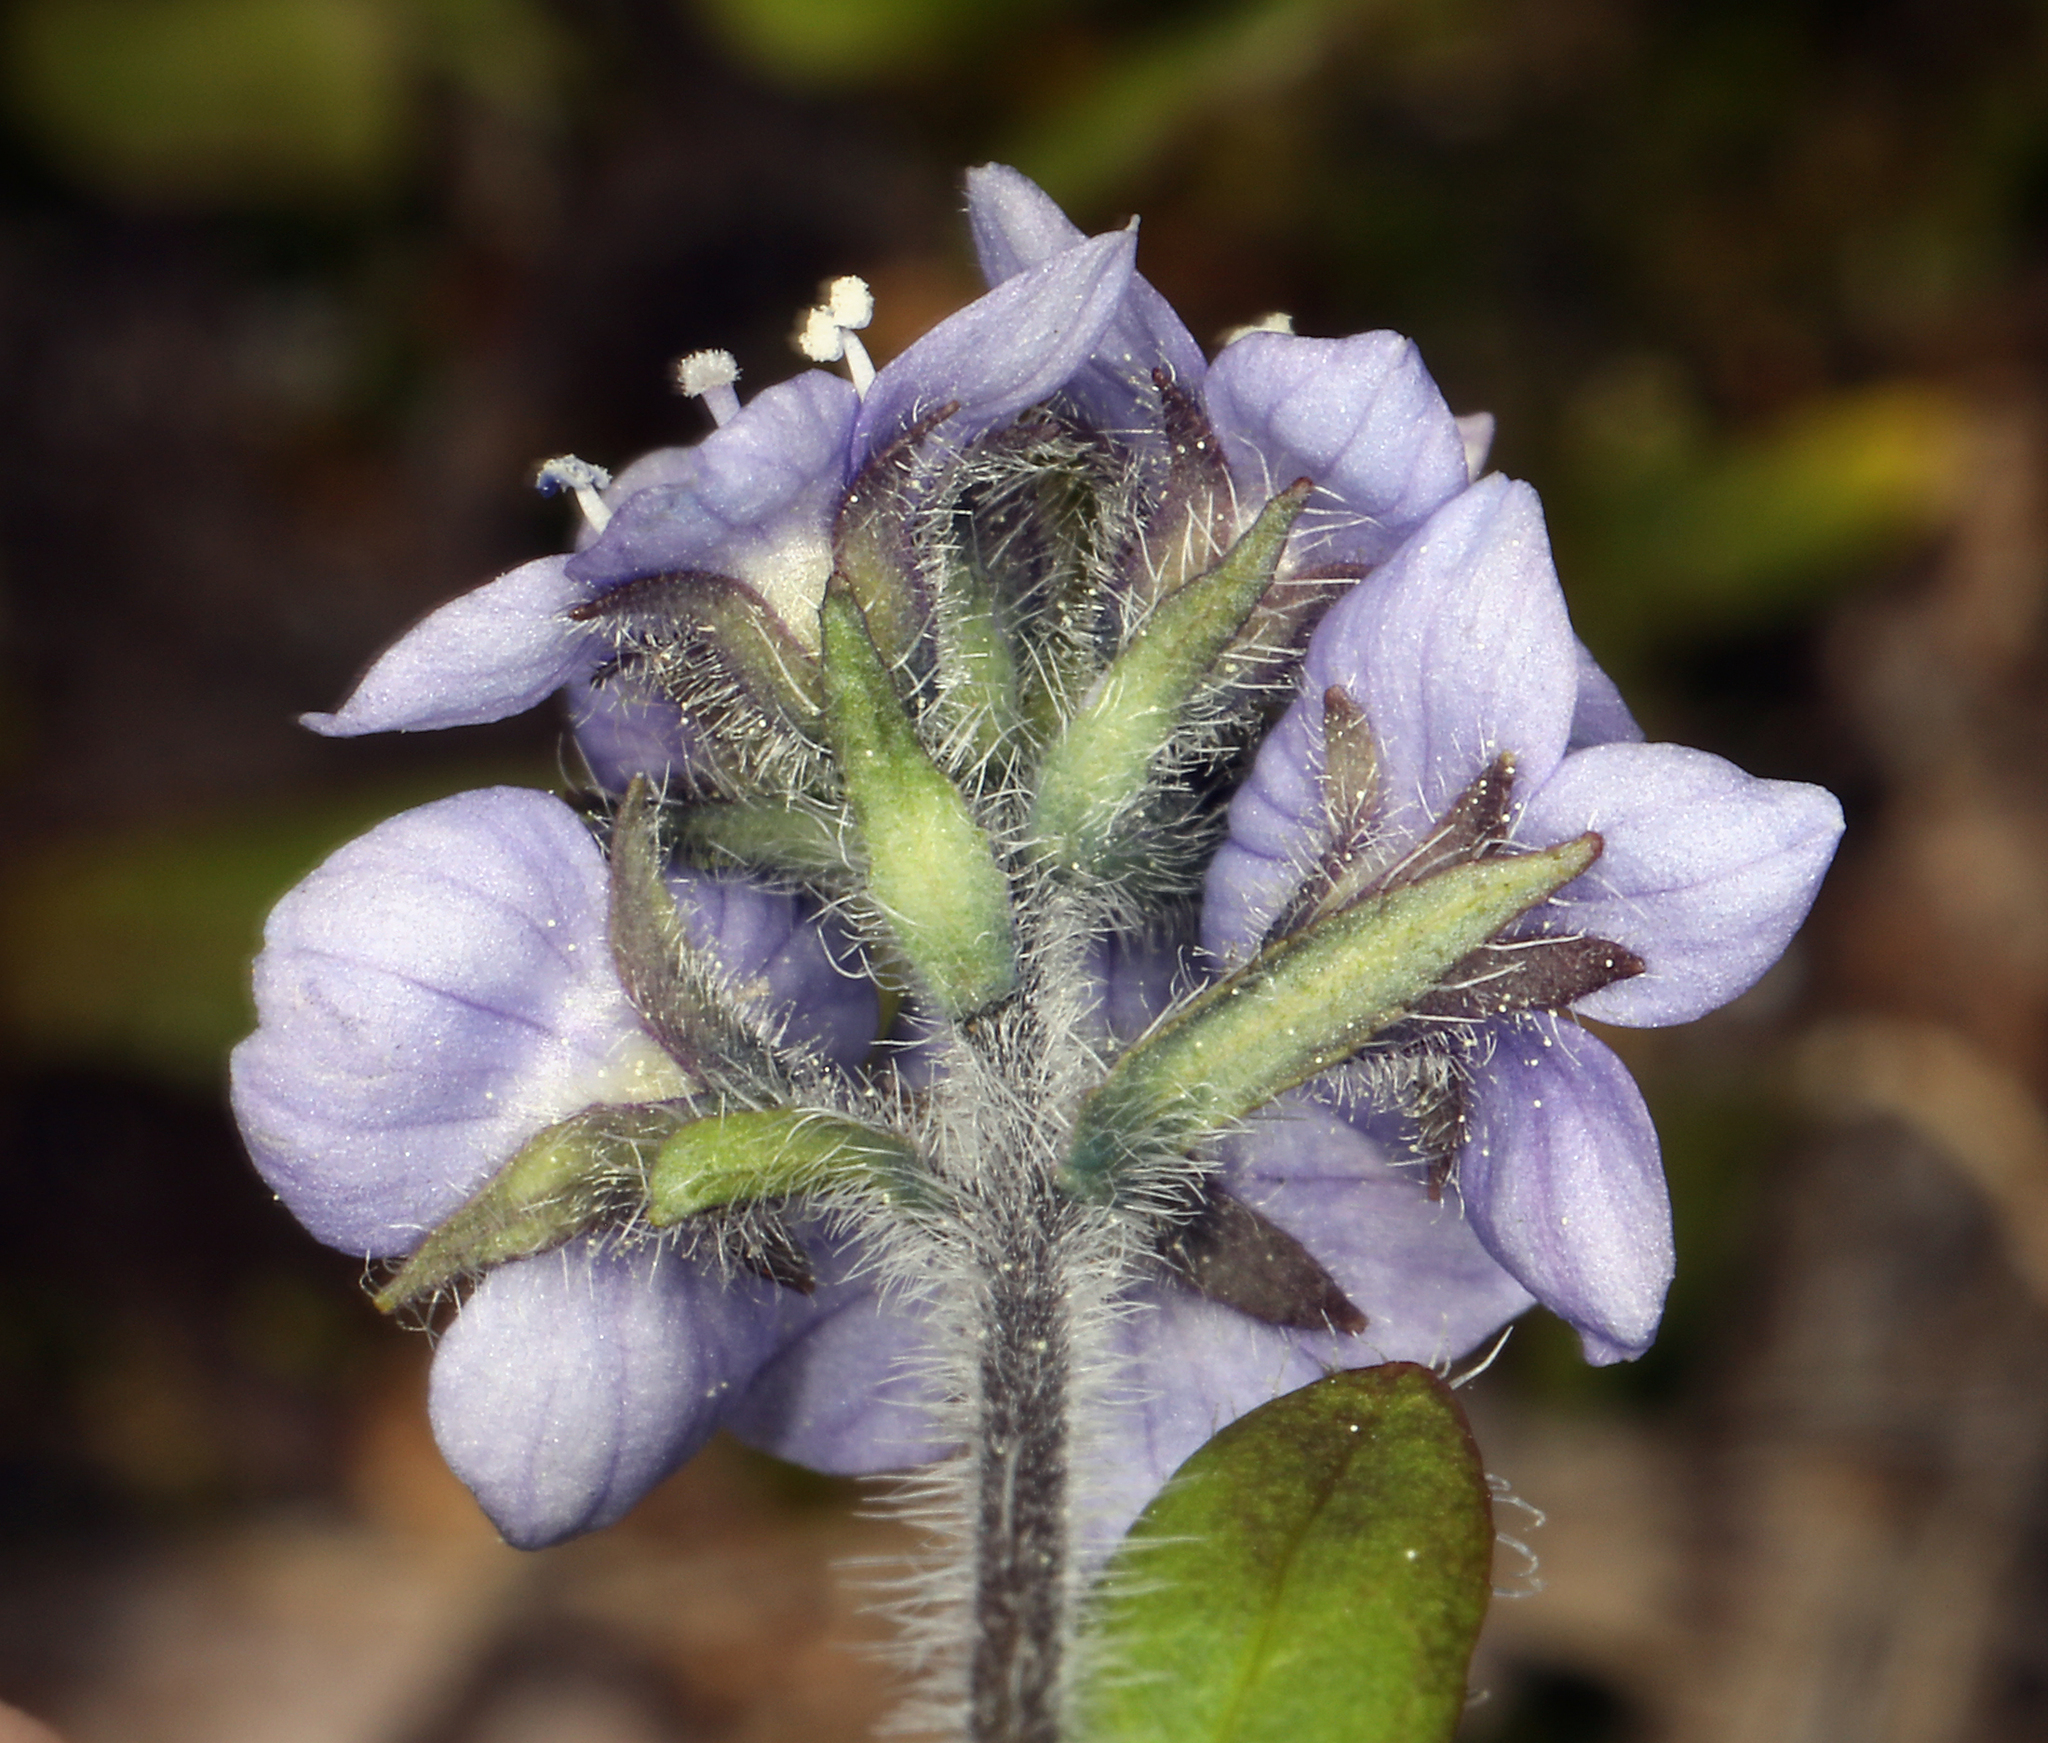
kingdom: Plantae
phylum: Tracheophyta
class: Magnoliopsida
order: Lamiales
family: Plantaginaceae
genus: Veronica
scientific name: Veronica wormskjoldii
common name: American alpine speedwell
